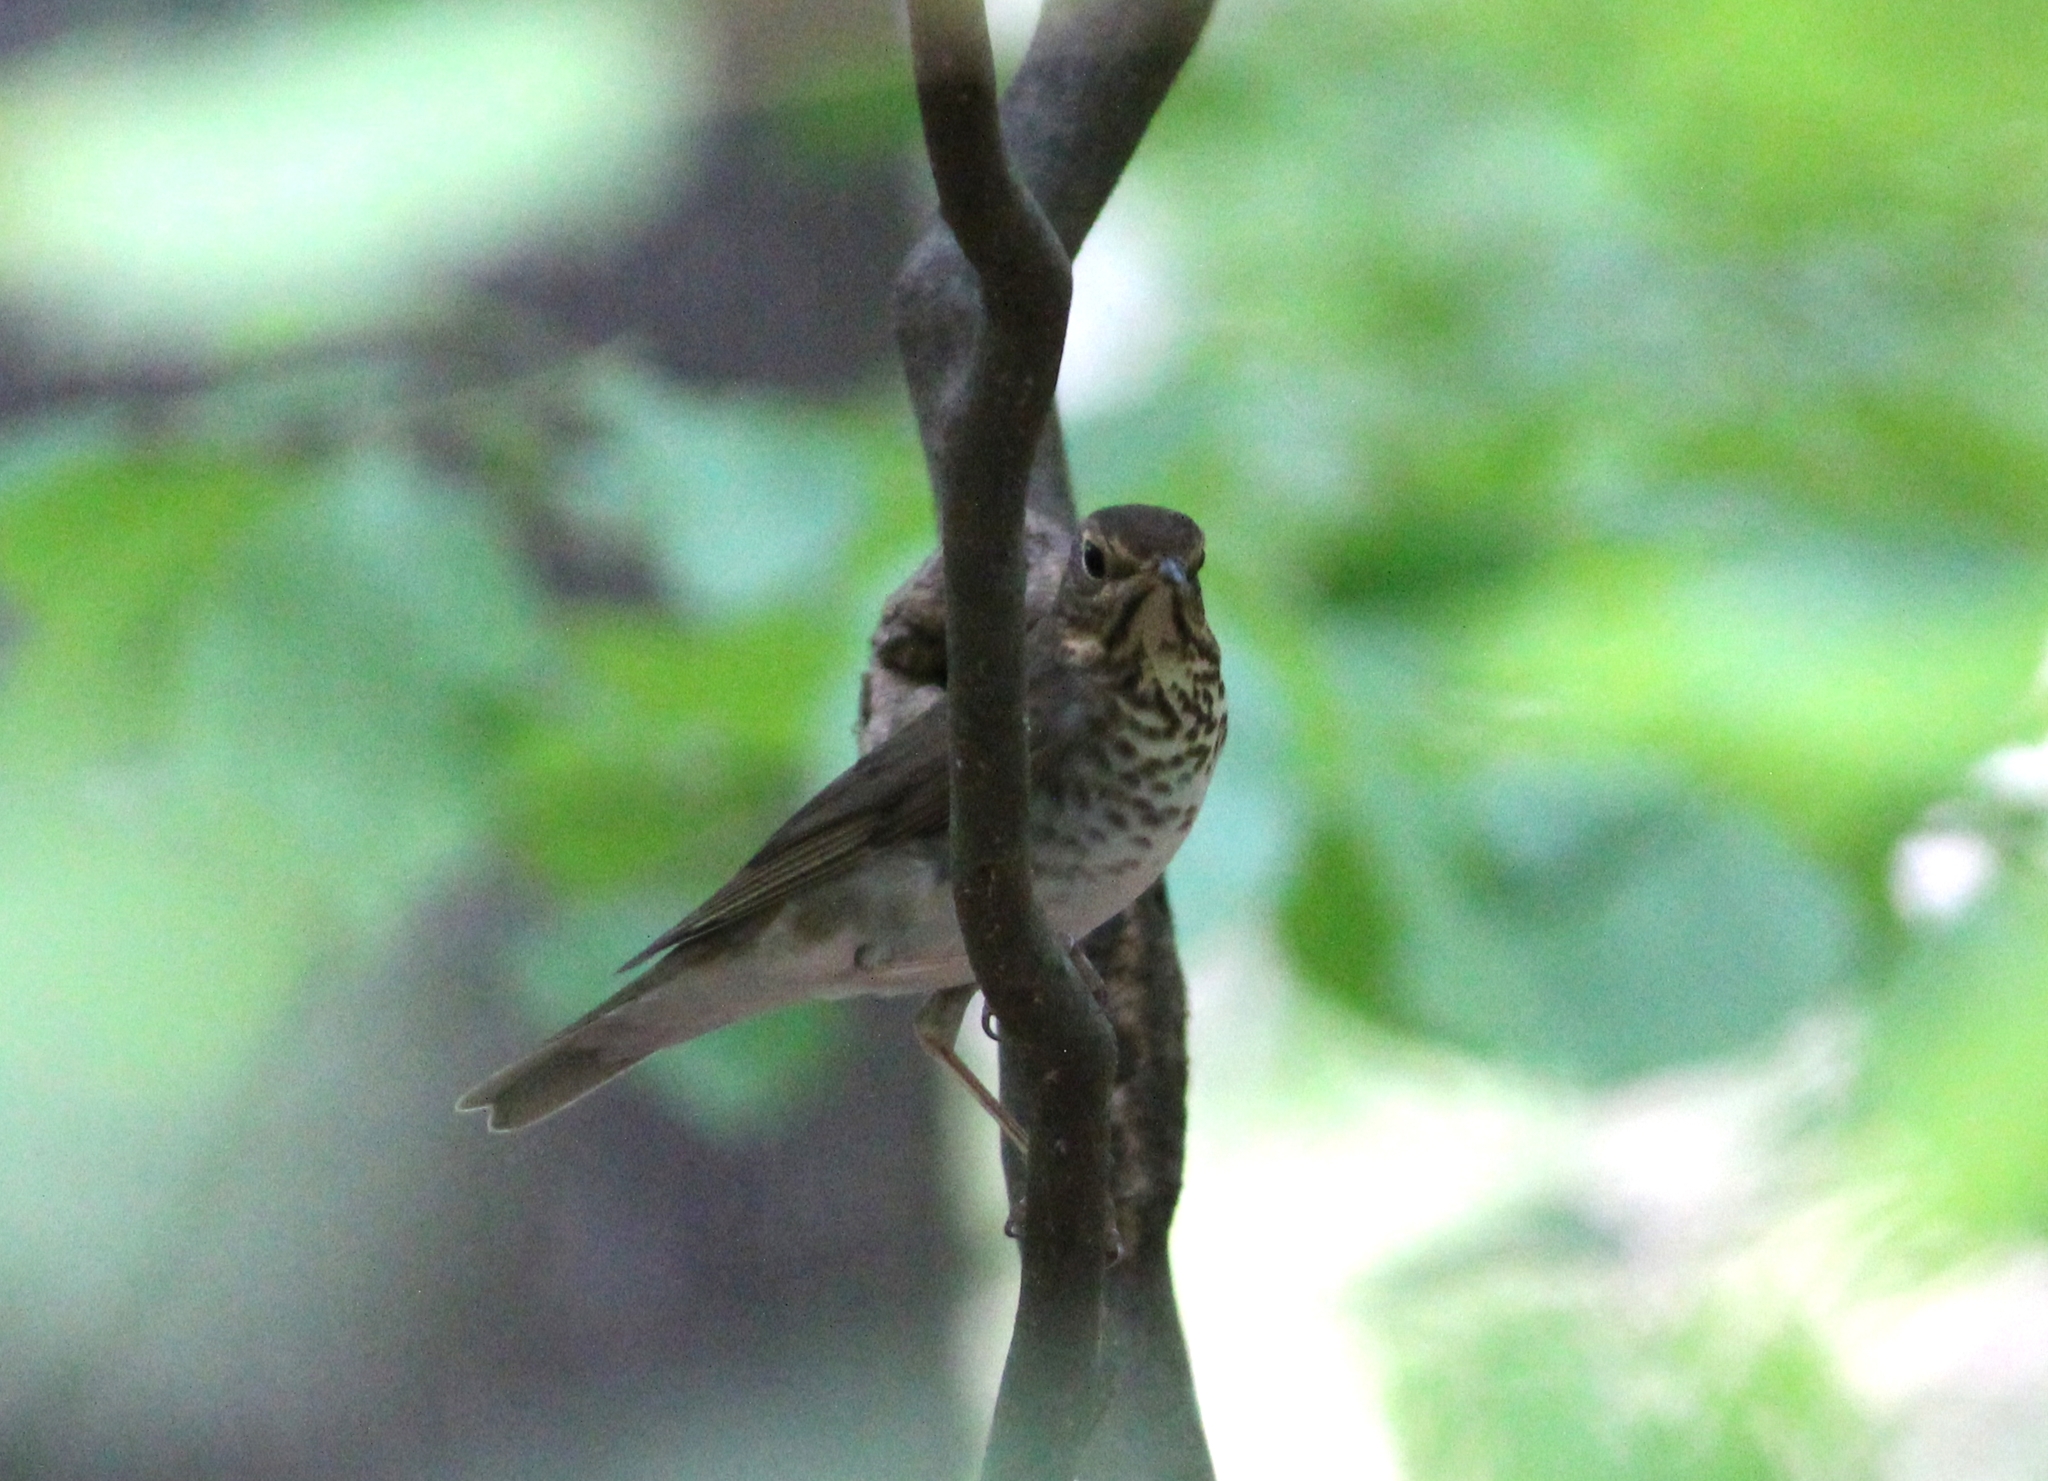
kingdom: Animalia
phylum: Chordata
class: Aves
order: Passeriformes
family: Turdidae
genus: Catharus
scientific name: Catharus ustulatus
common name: Swainson's thrush
